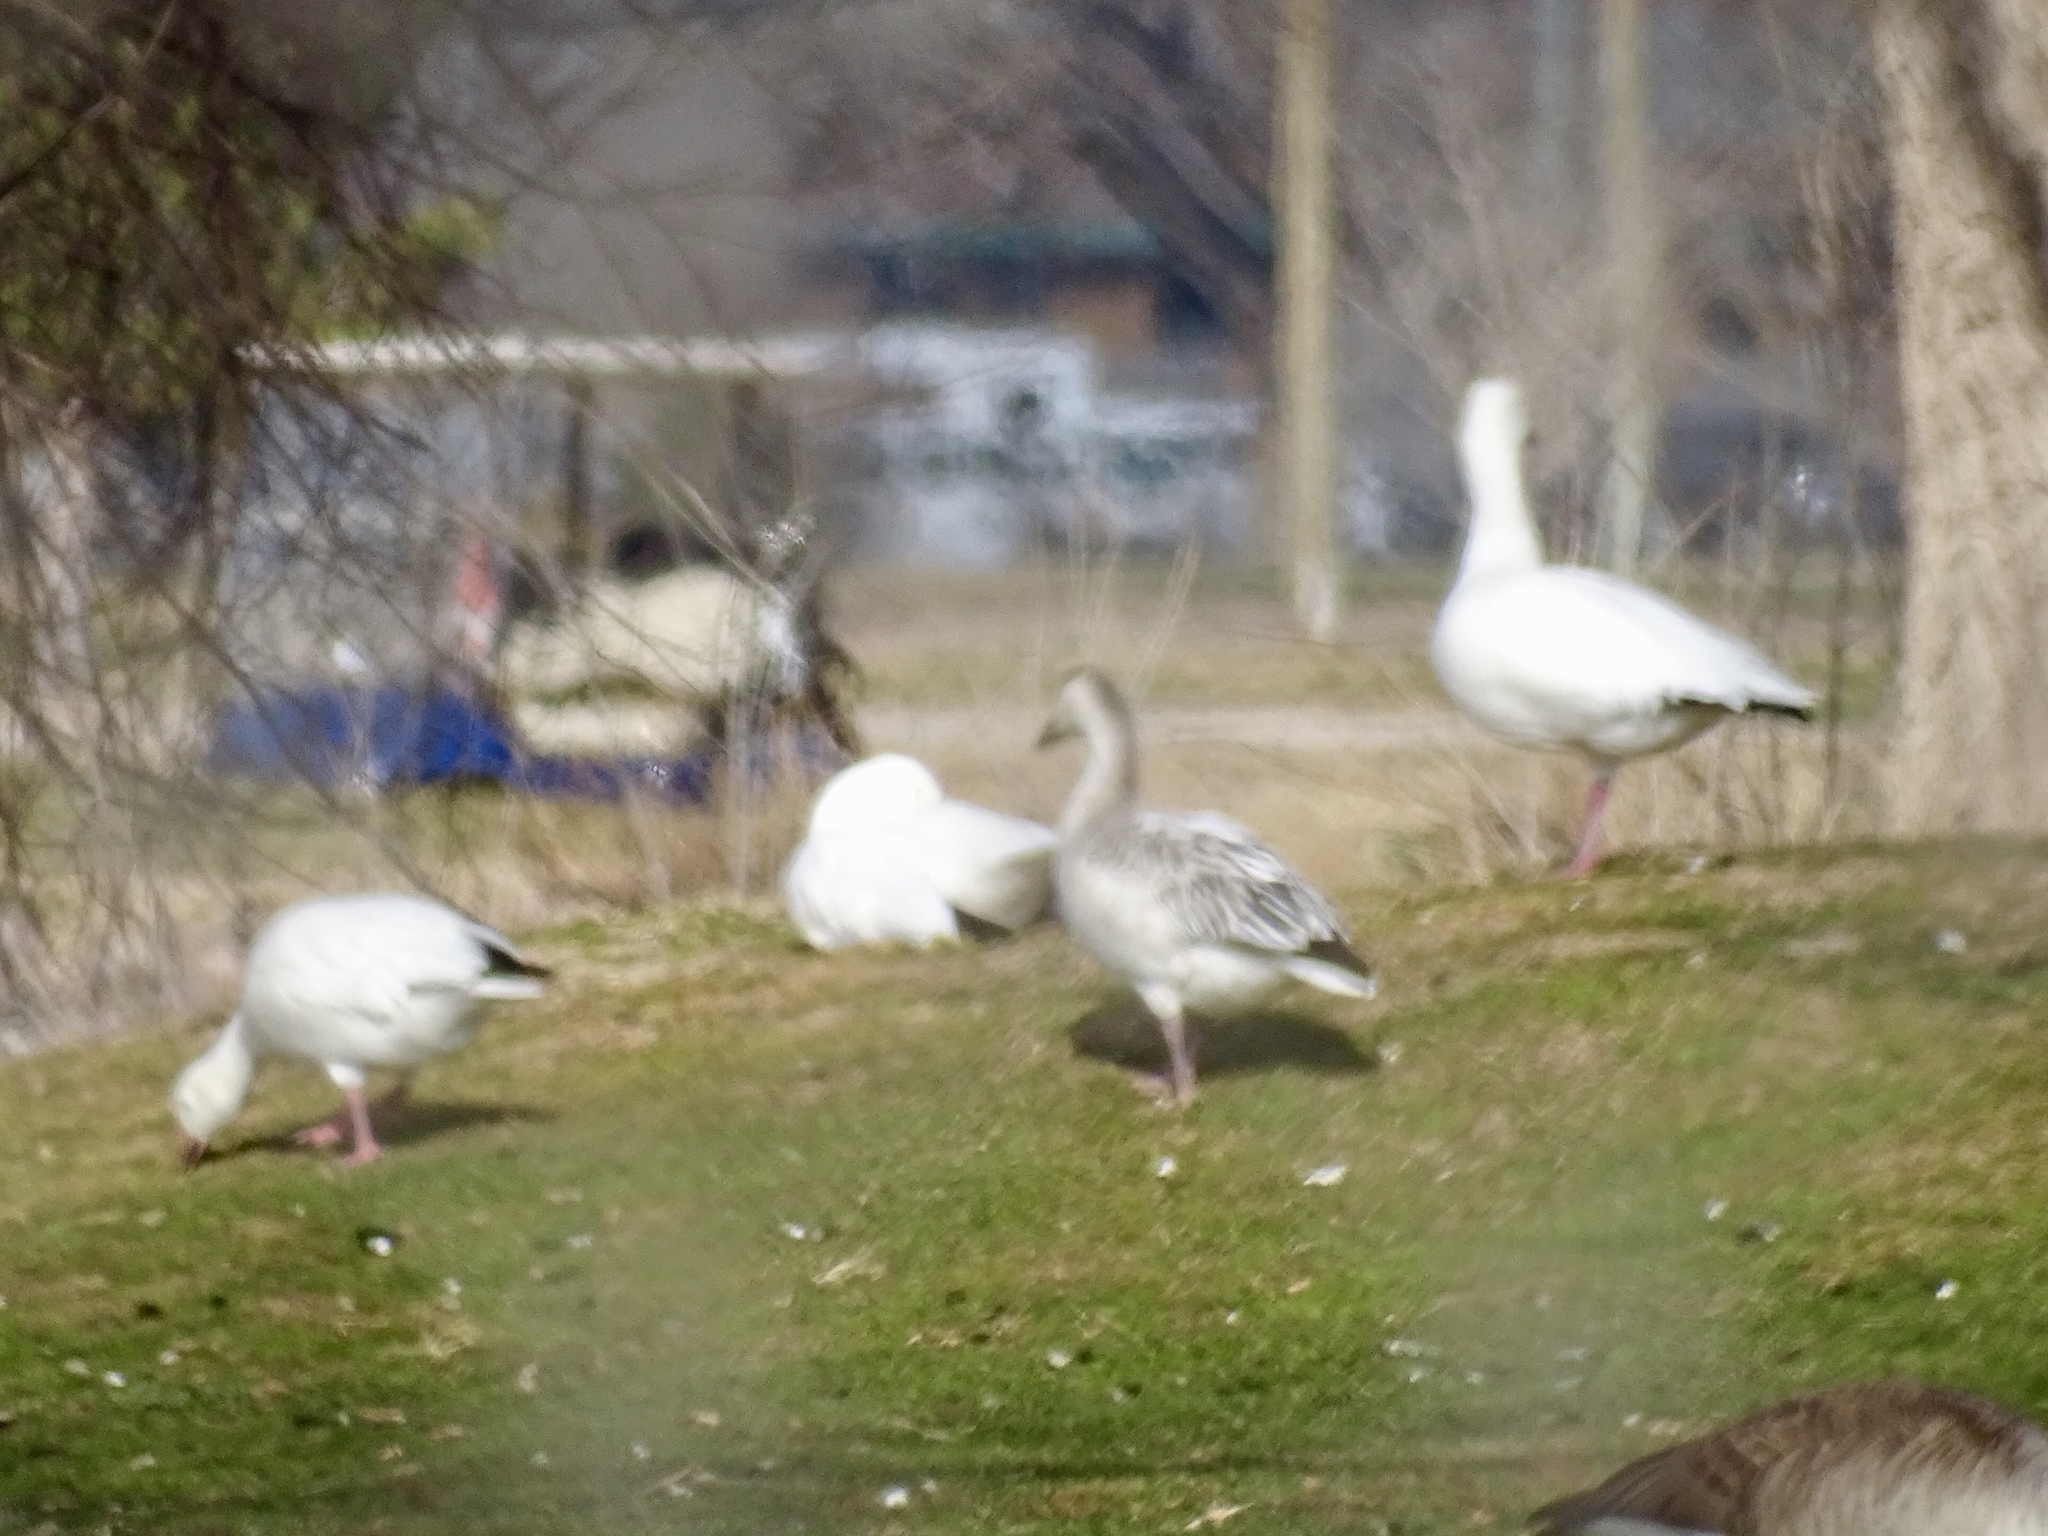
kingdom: Animalia
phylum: Chordata
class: Aves
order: Anseriformes
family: Anatidae
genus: Anser
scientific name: Anser caerulescens
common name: Snow goose
